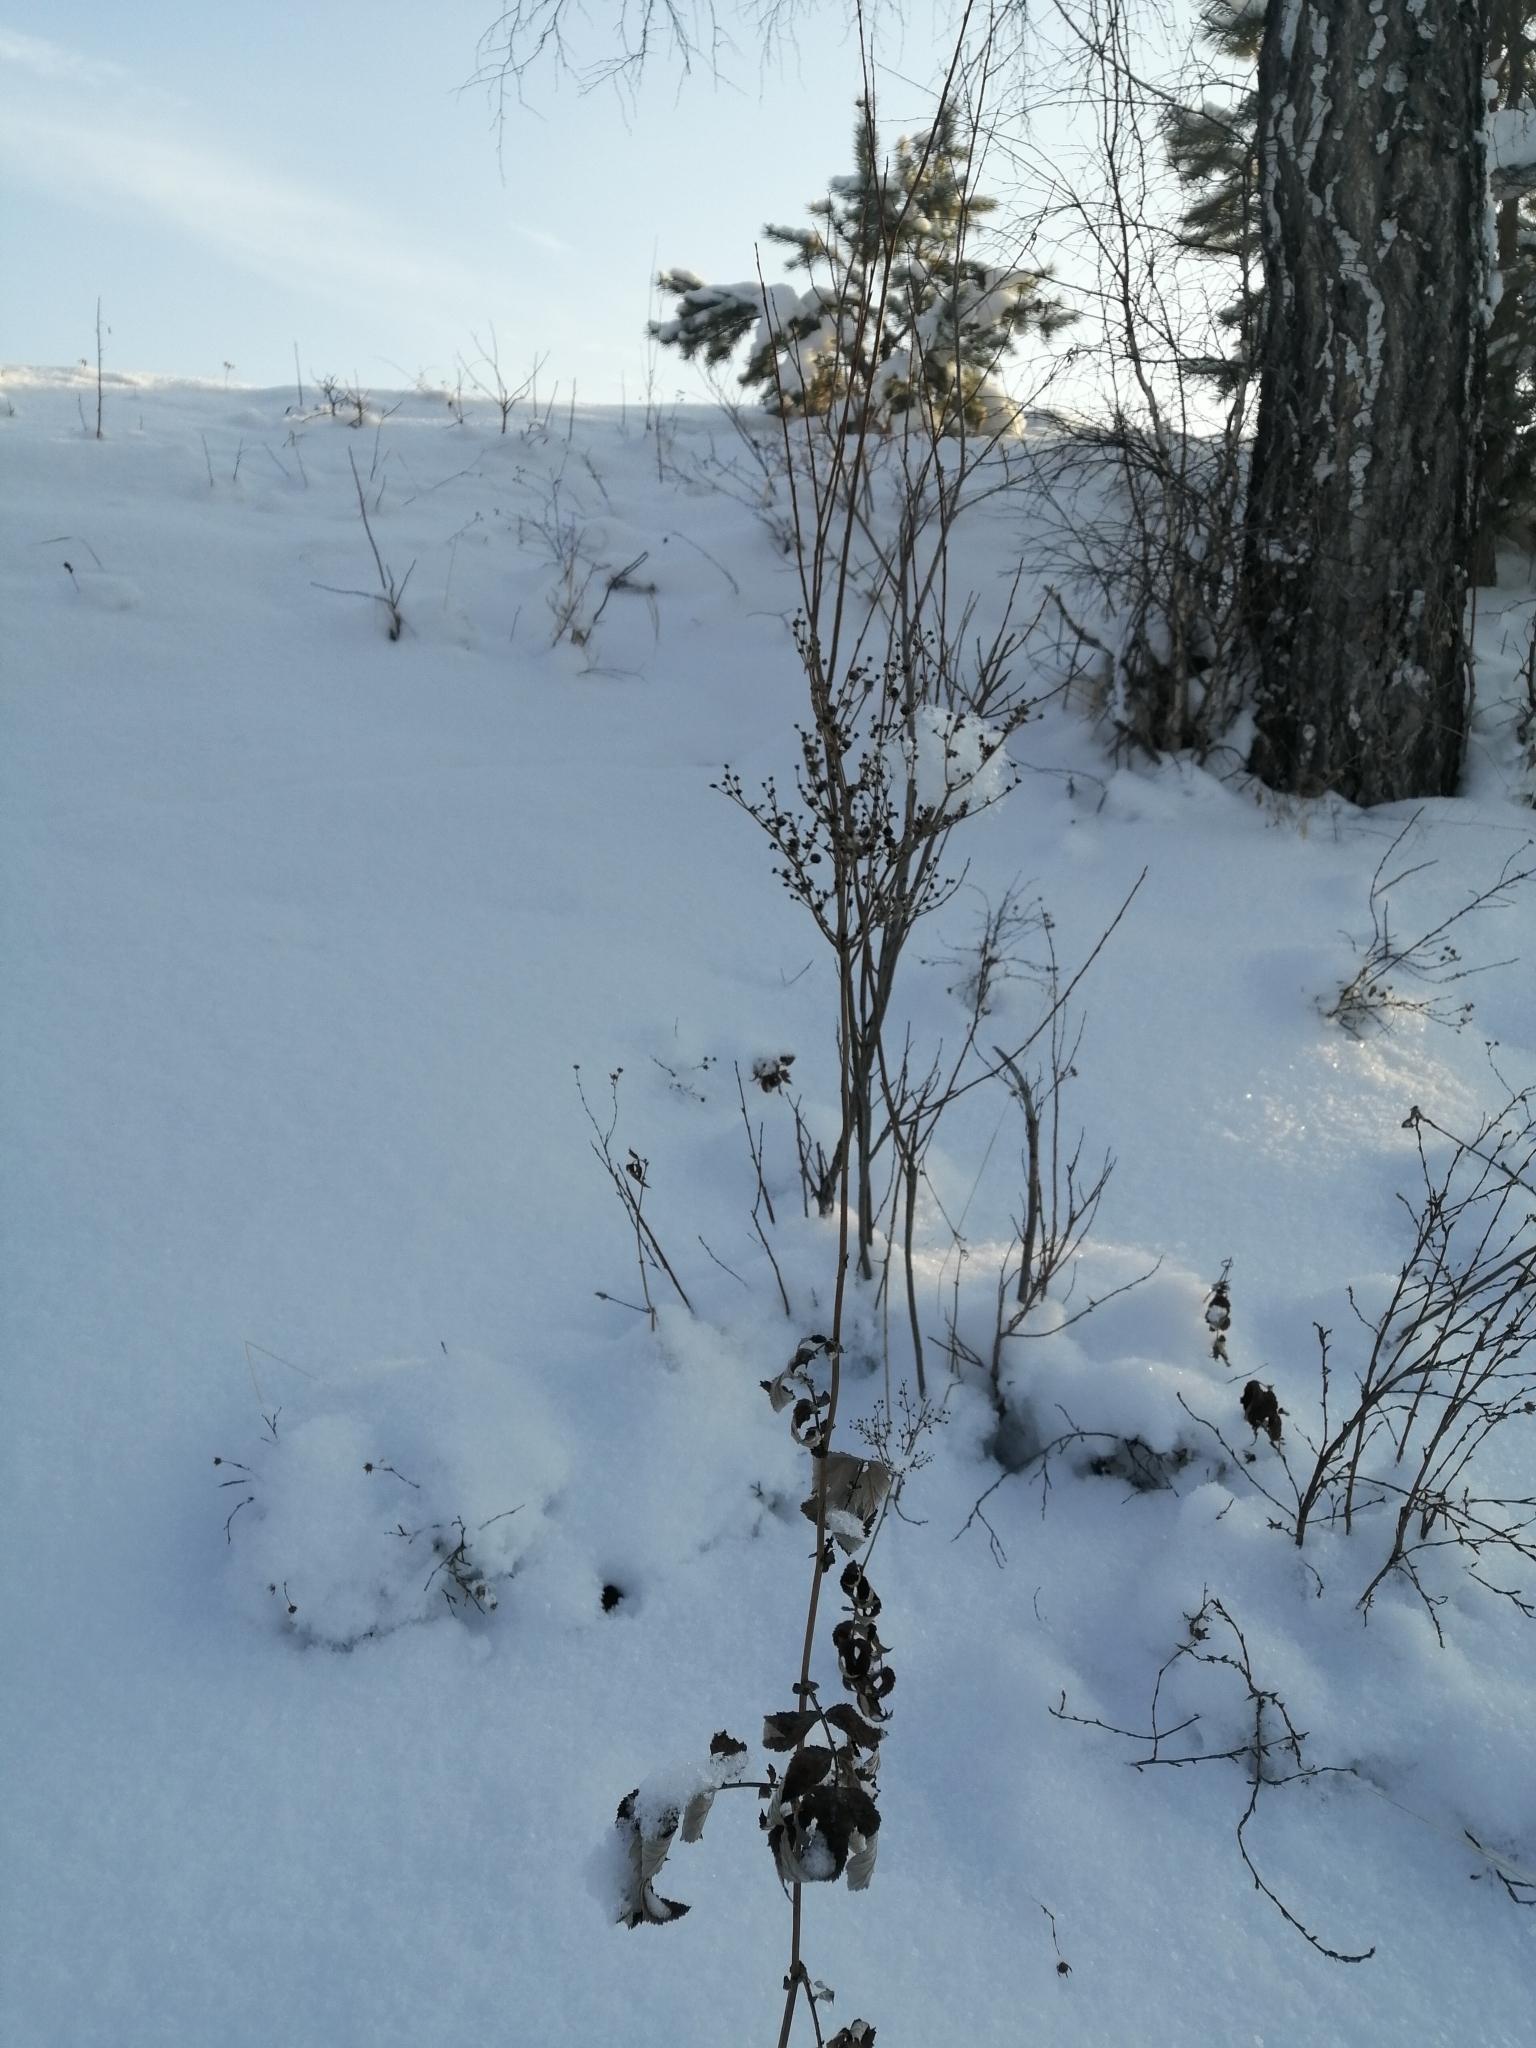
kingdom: Plantae
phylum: Tracheophyta
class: Magnoliopsida
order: Rosales
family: Rosaceae
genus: Filipendula
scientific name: Filipendula ulmaria
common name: Meadowsweet
